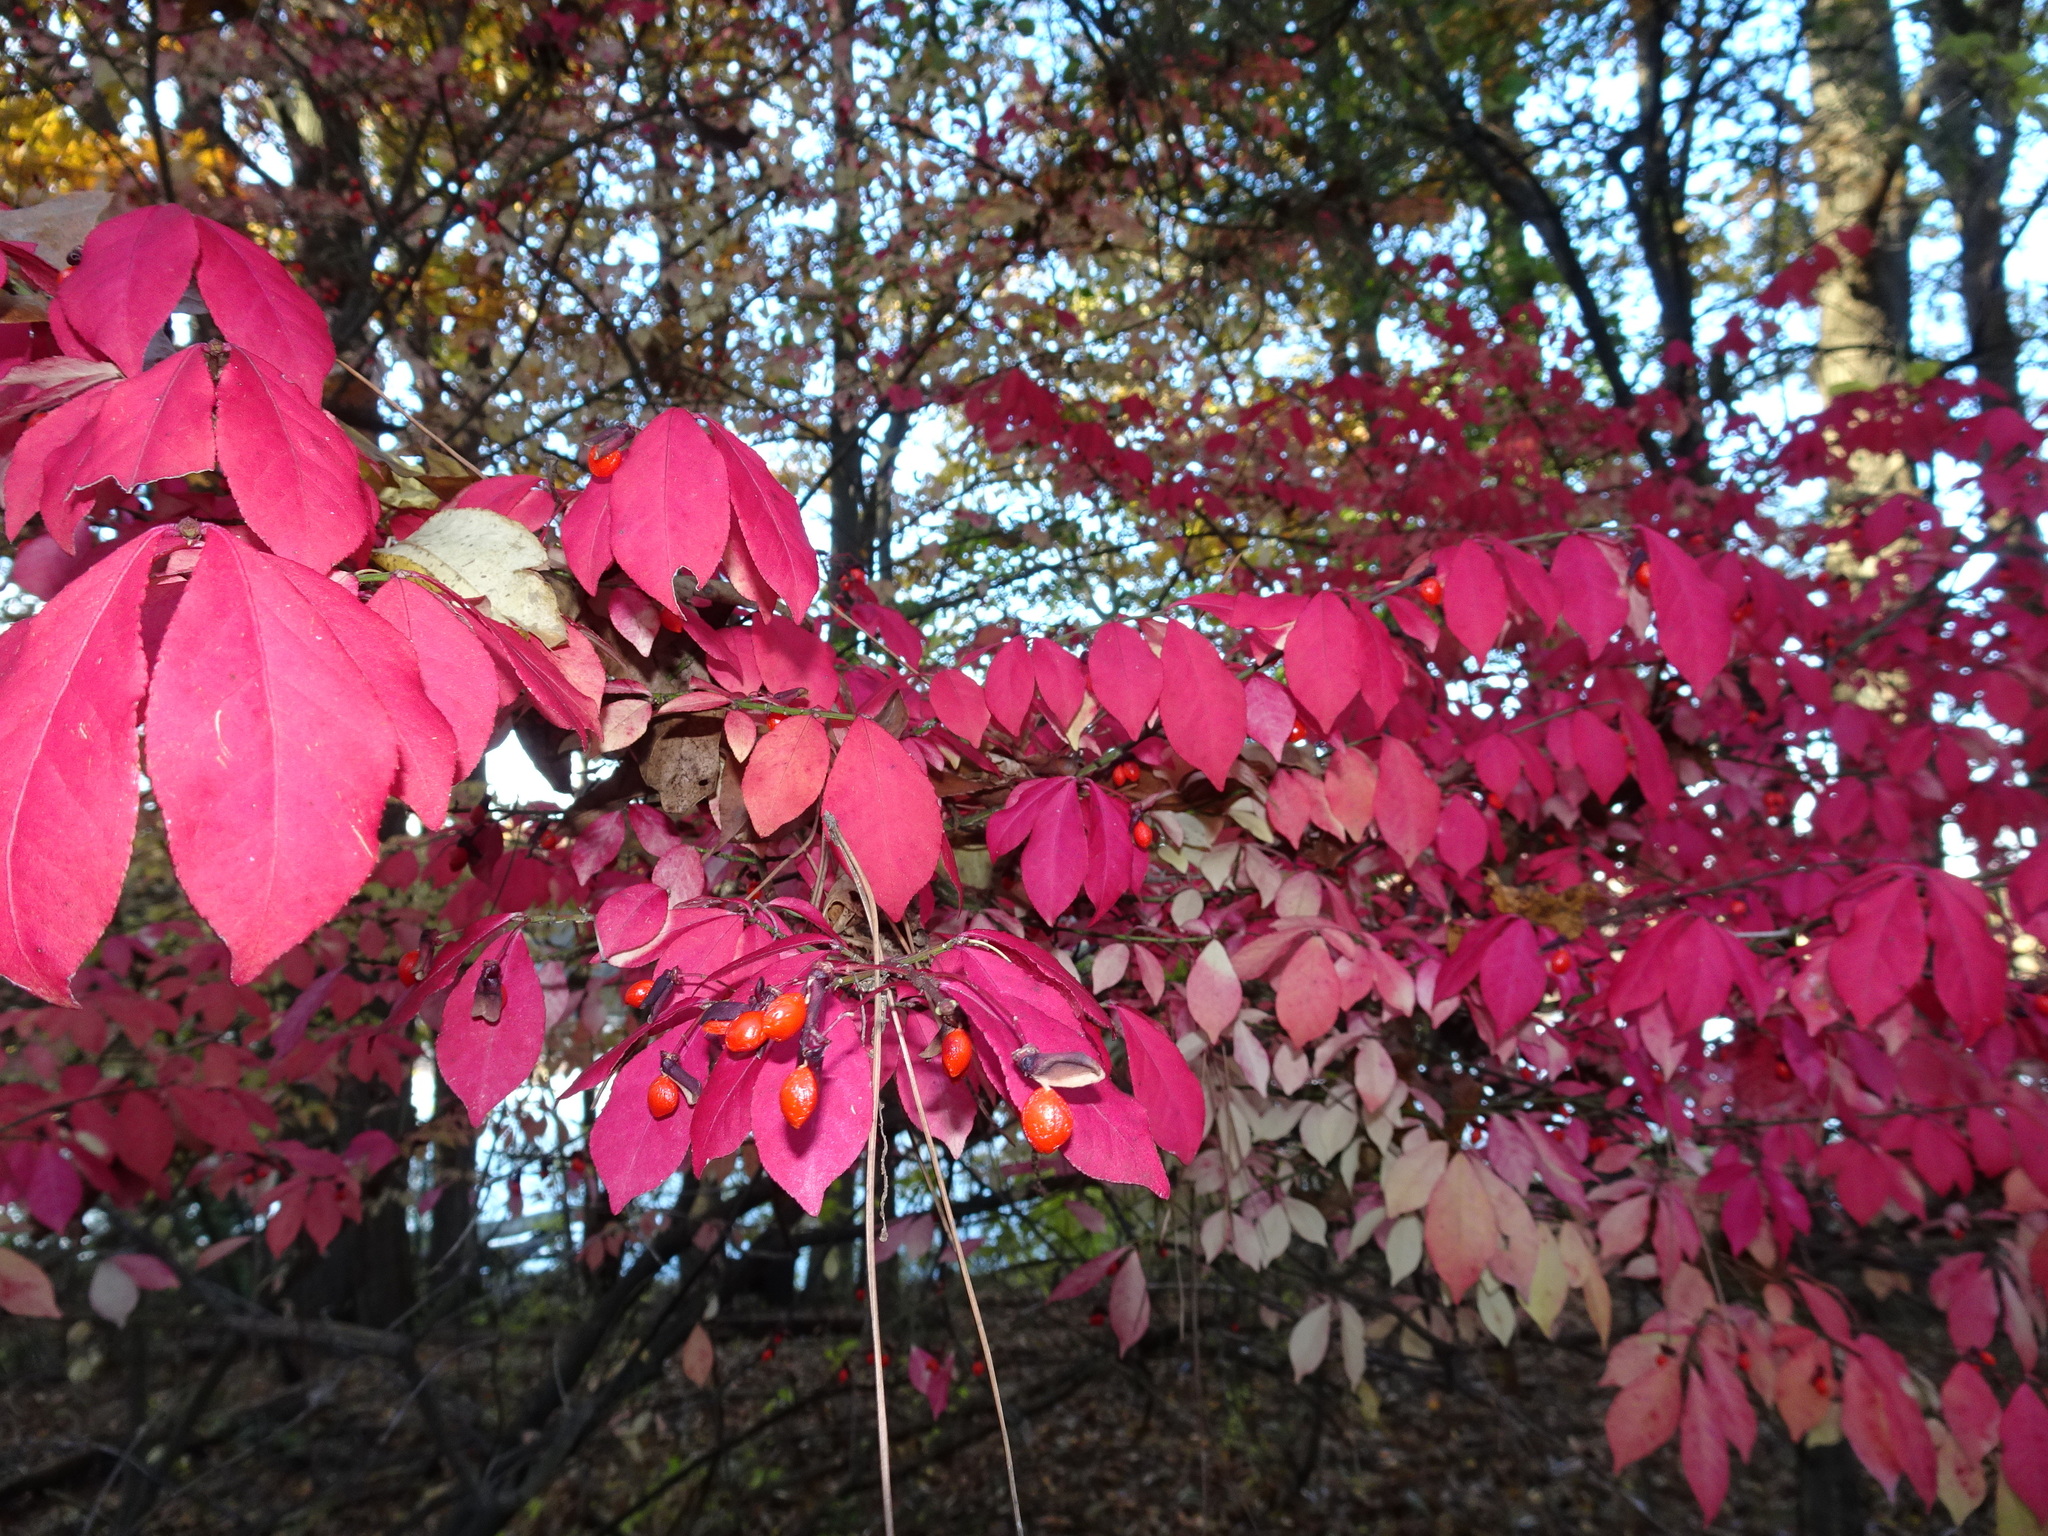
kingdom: Plantae
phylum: Tracheophyta
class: Magnoliopsida
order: Celastrales
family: Celastraceae
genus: Euonymus
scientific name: Euonymus alatus
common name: Winged euonymus
